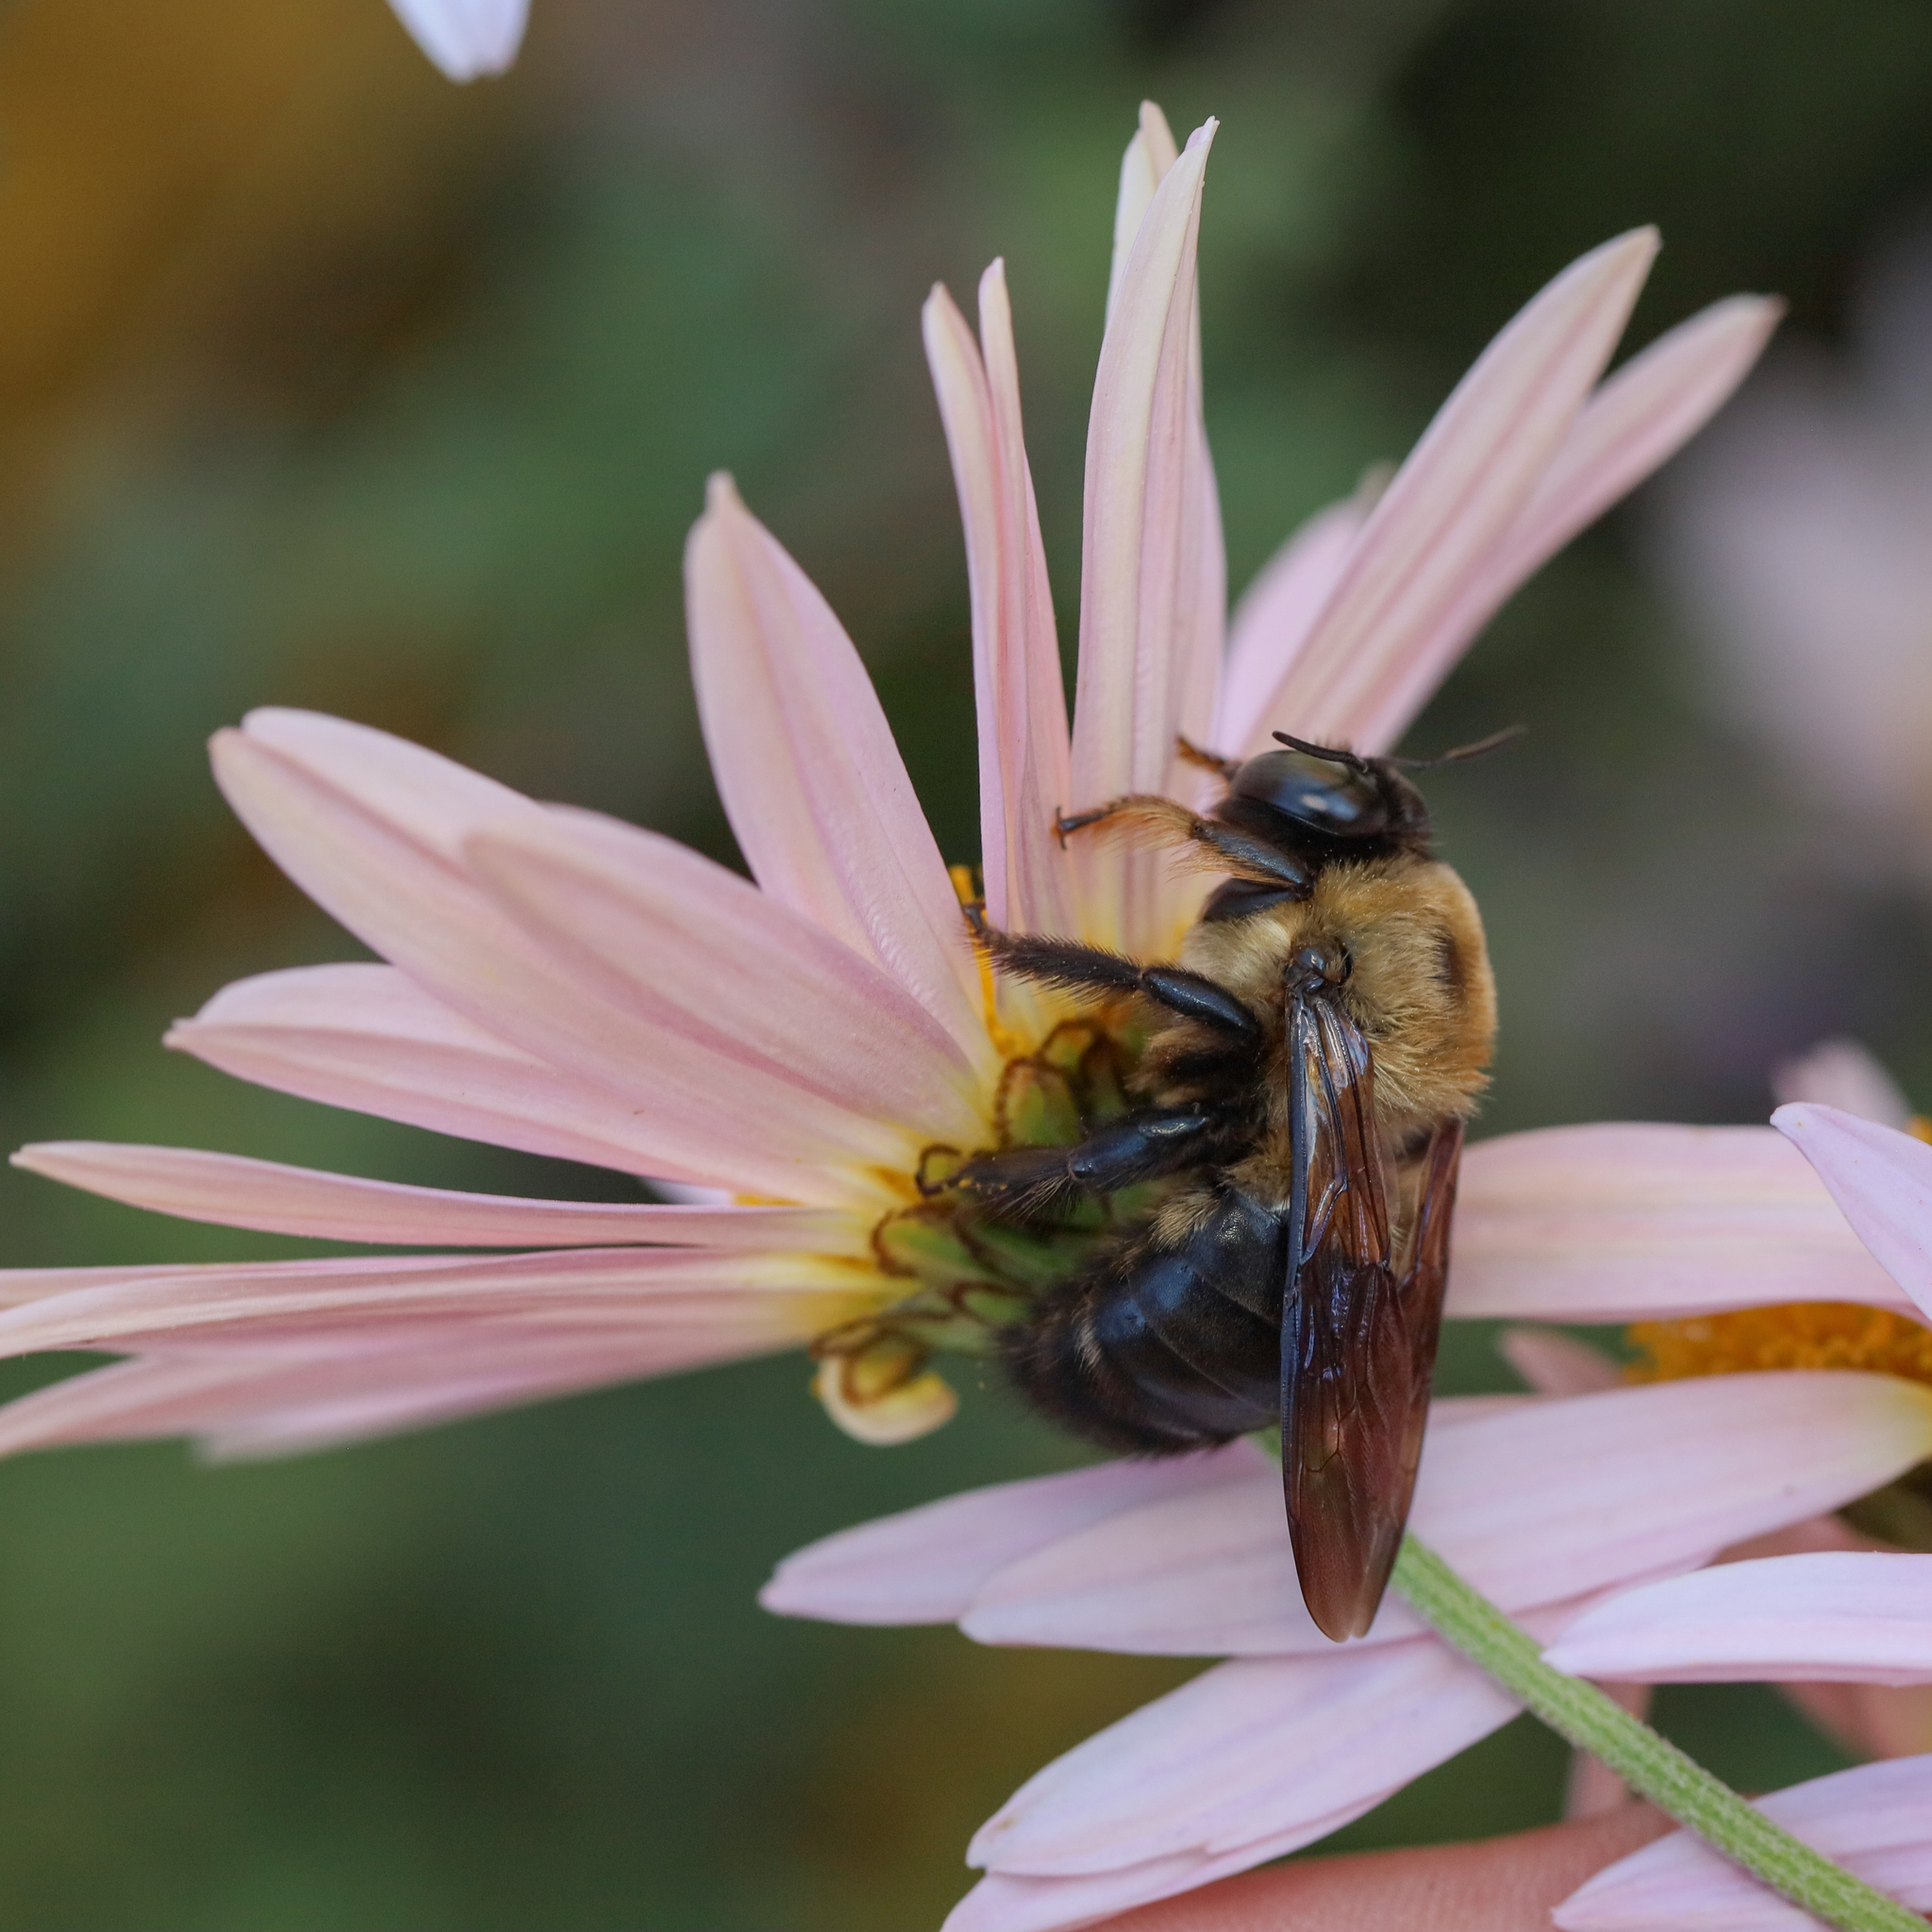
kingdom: Animalia
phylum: Arthropoda
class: Insecta
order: Hymenoptera
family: Apidae
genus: Xylocopa
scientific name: Xylocopa virginica
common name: Carpenter bee
